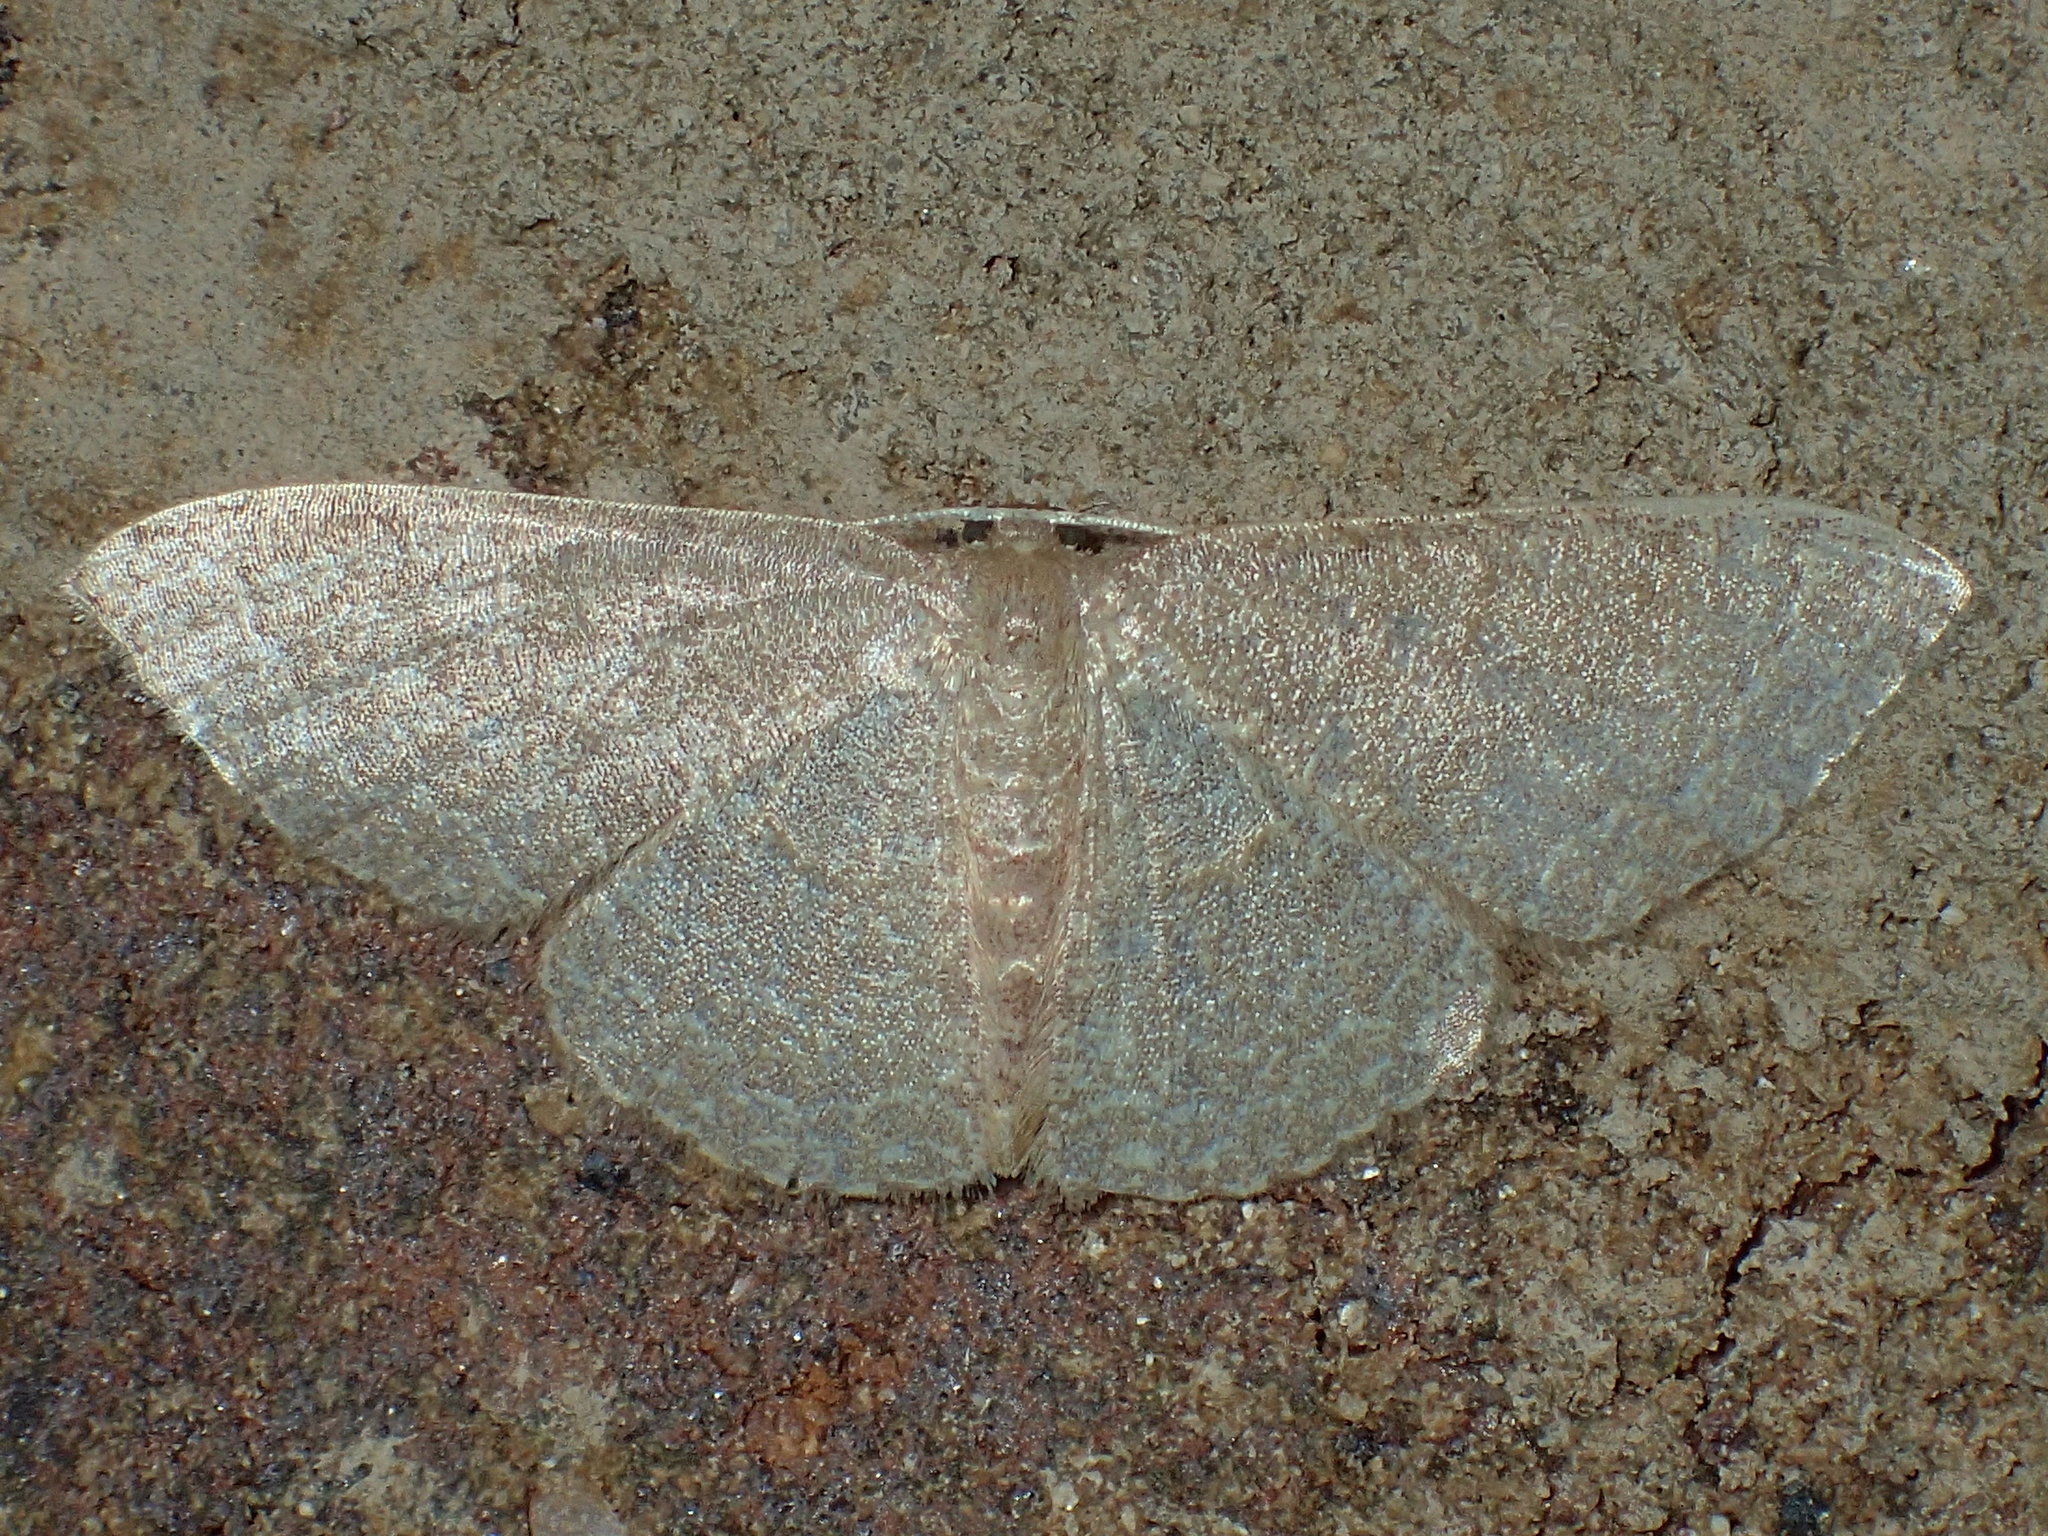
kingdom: Animalia
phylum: Arthropoda
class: Insecta
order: Lepidoptera
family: Geometridae
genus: Pleuroprucha
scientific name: Pleuroprucha insulsaria
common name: Common tan wave
